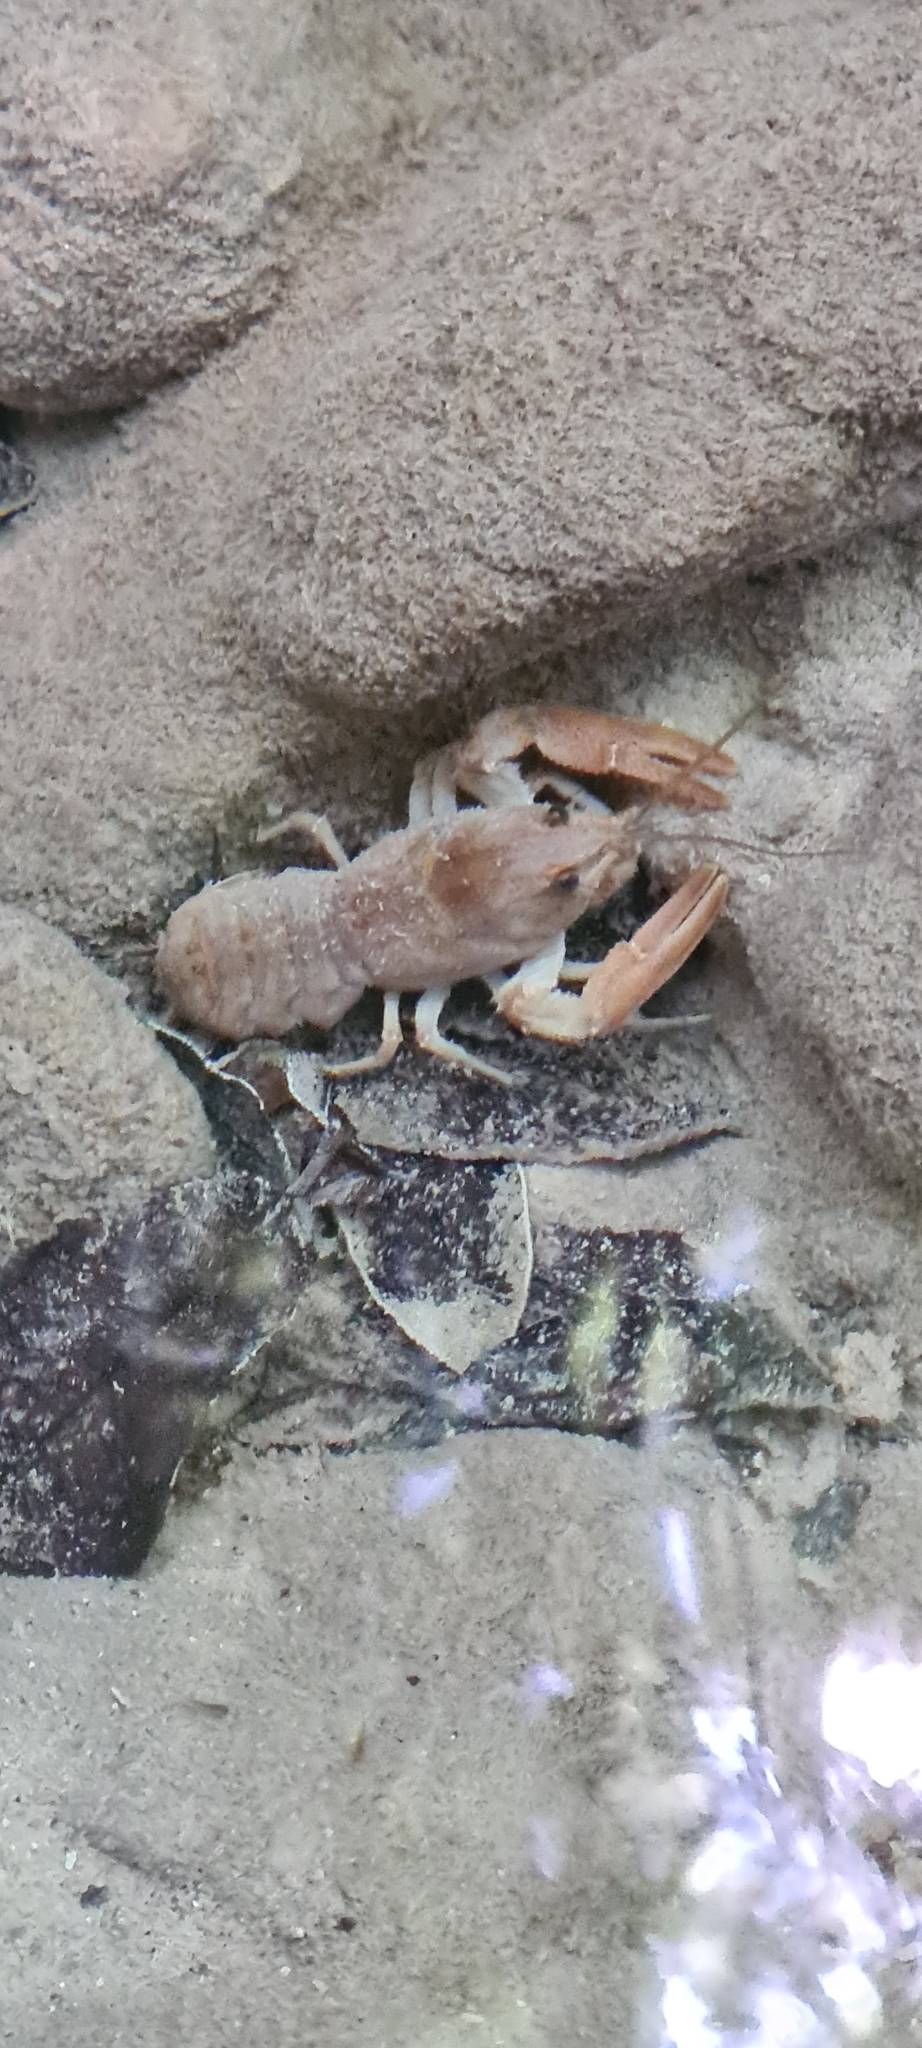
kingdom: Animalia
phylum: Arthropoda
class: Malacostraca
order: Decapoda
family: Astacidae
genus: Austropotamobius
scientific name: Austropotamobius pallipes
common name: White-clawed crayfish
